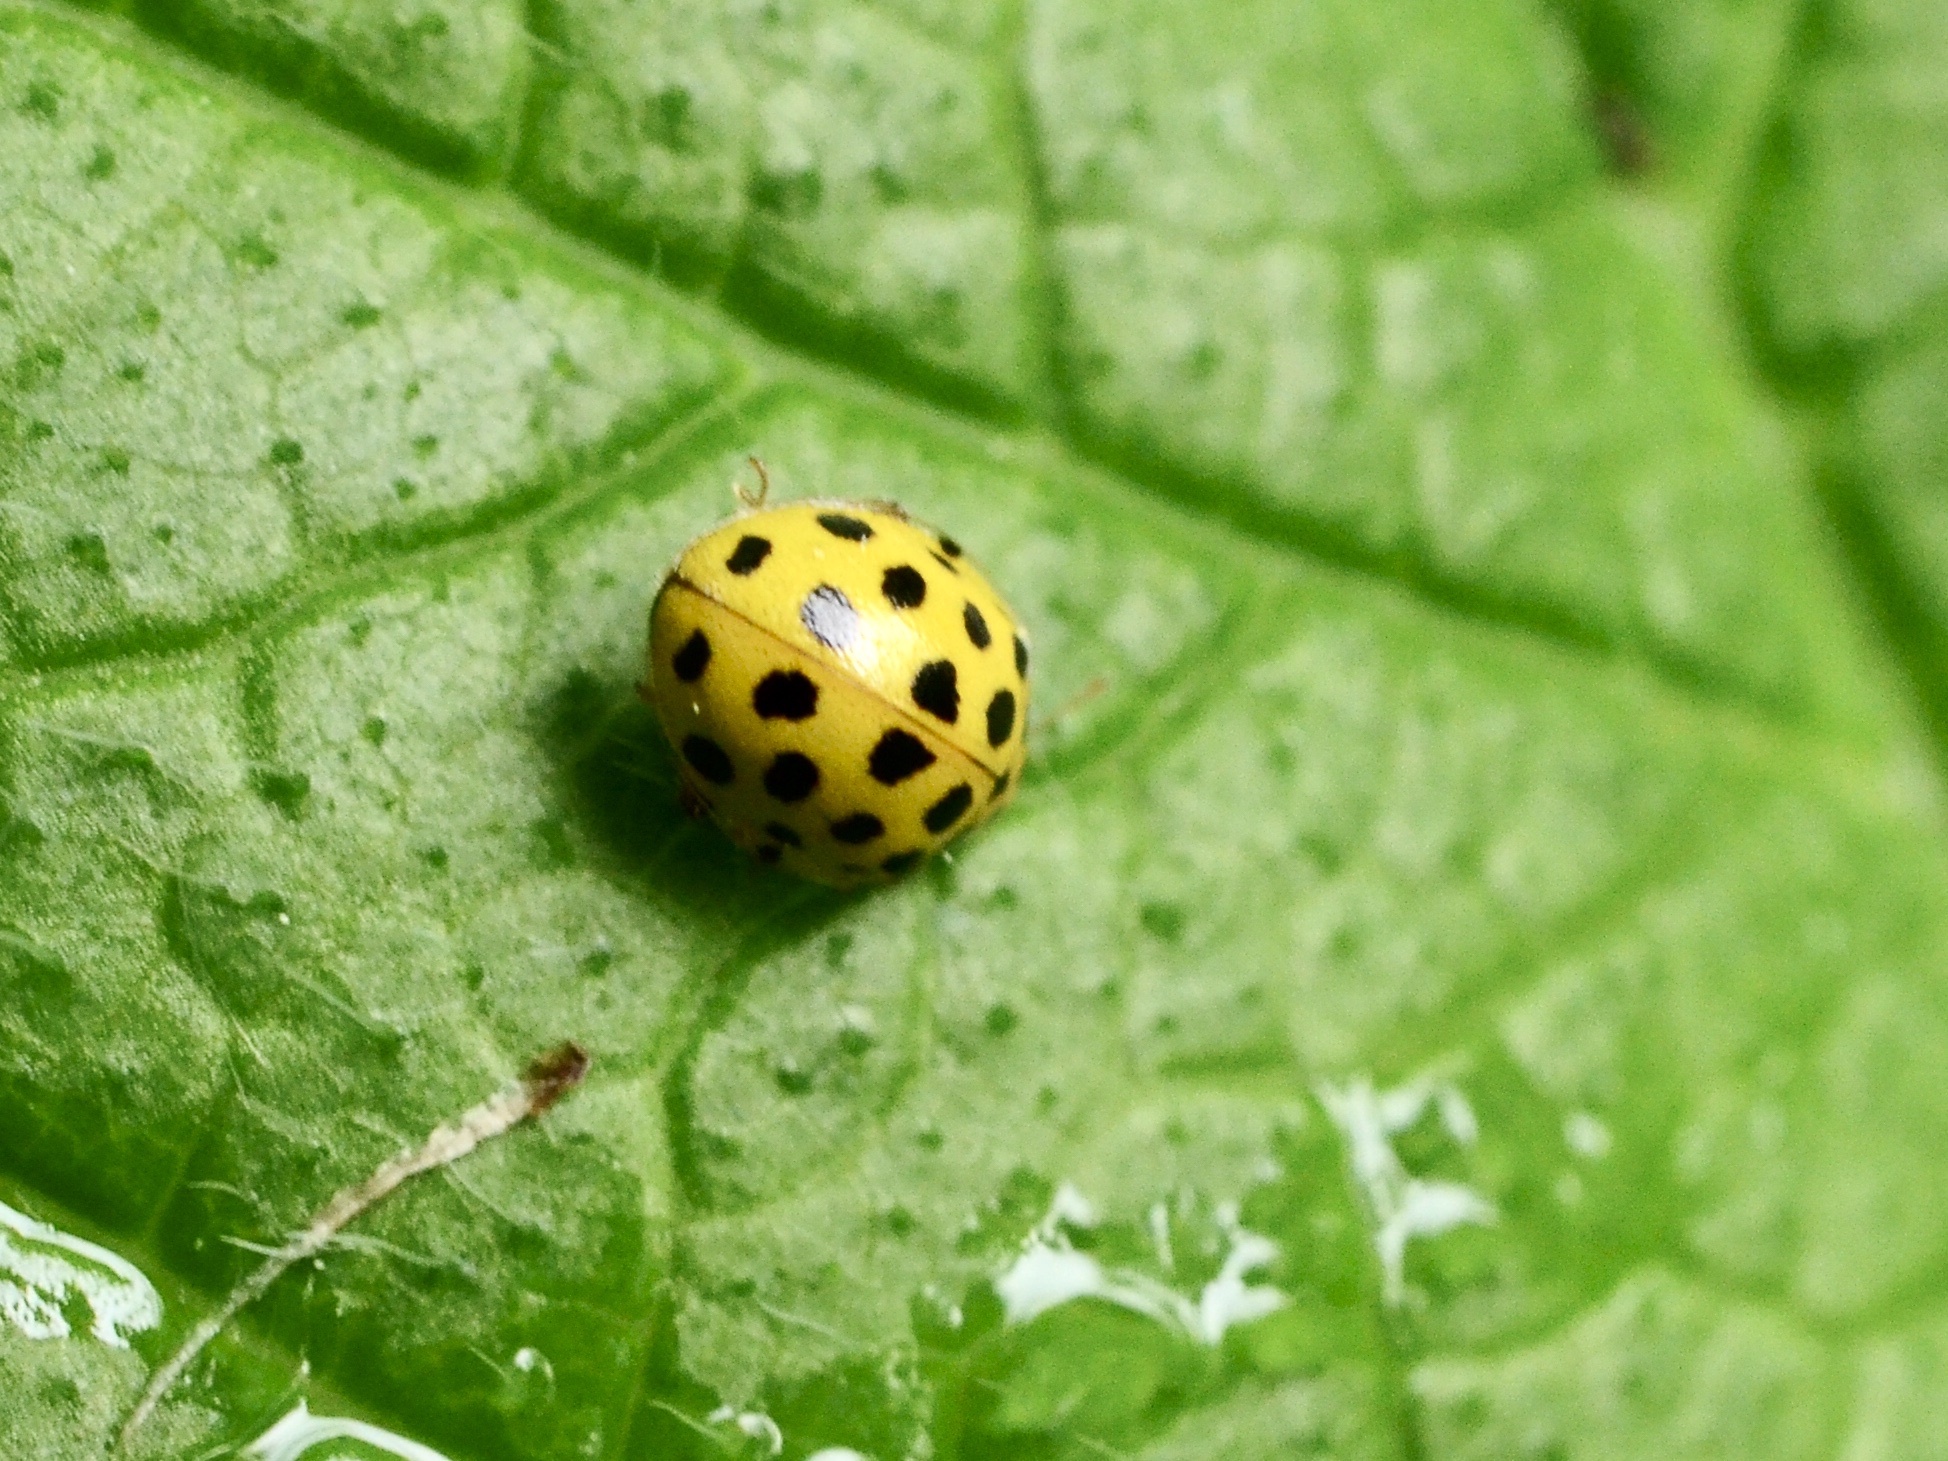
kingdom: Animalia
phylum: Arthropoda
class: Insecta
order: Coleoptera
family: Coccinellidae
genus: Psyllobora
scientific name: Psyllobora vigintiduopunctata
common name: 22-spot ladybird
